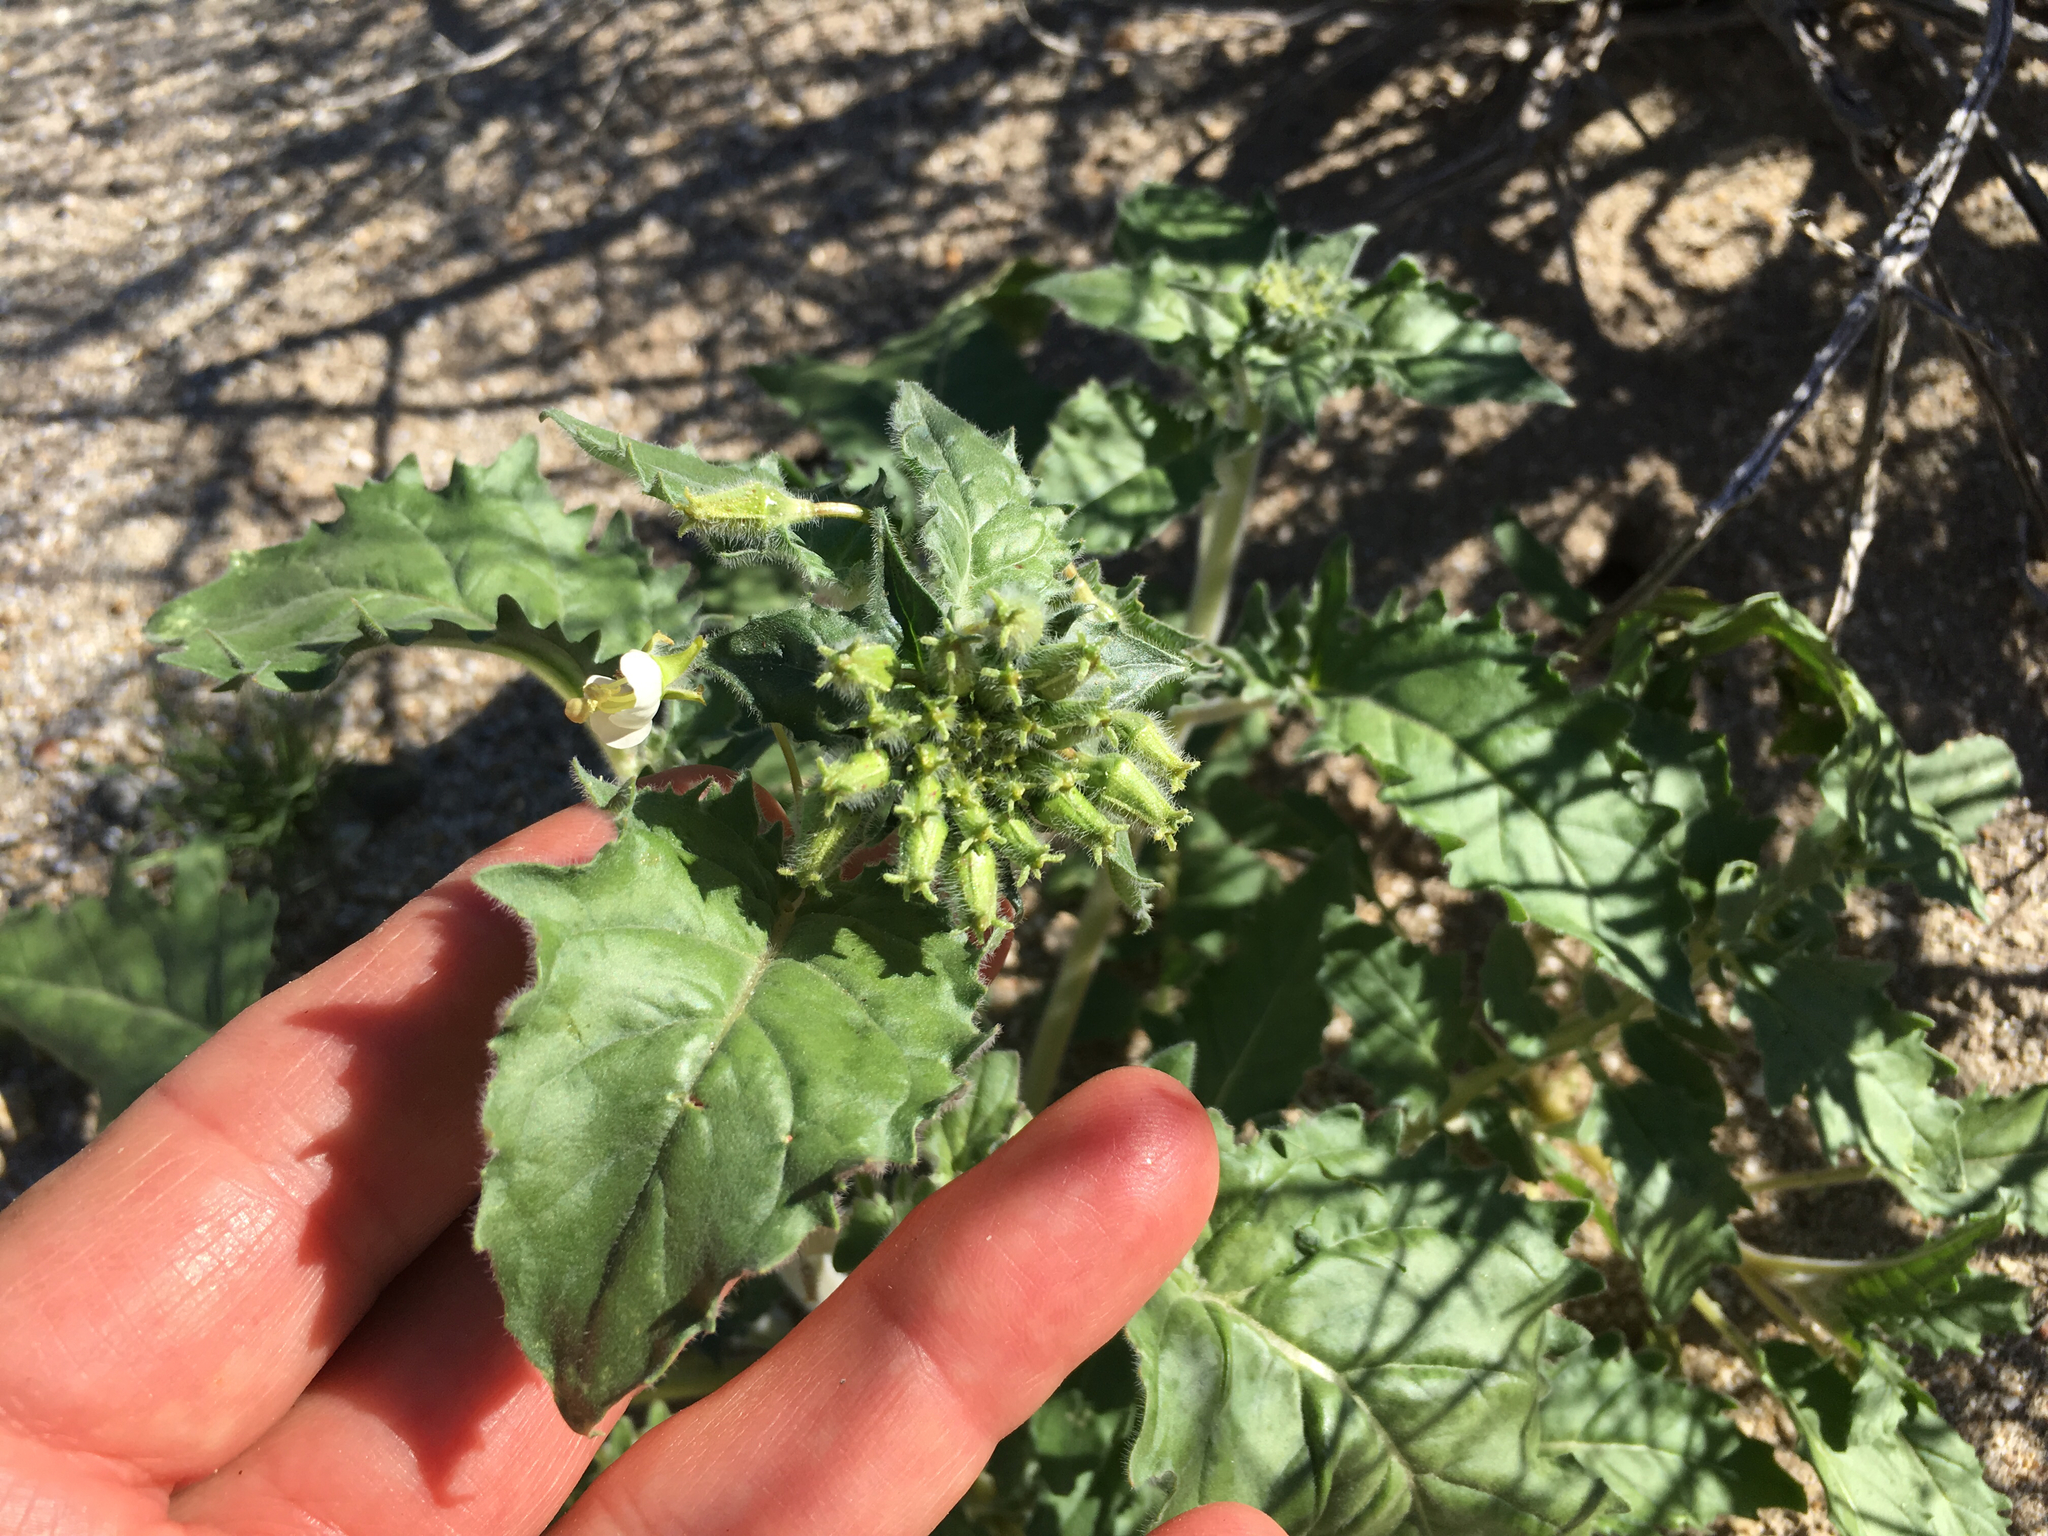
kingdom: Plantae
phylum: Tracheophyta
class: Magnoliopsida
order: Myrtales
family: Onagraceae
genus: Chylismia
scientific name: Chylismia claviformis
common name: Browneyes
